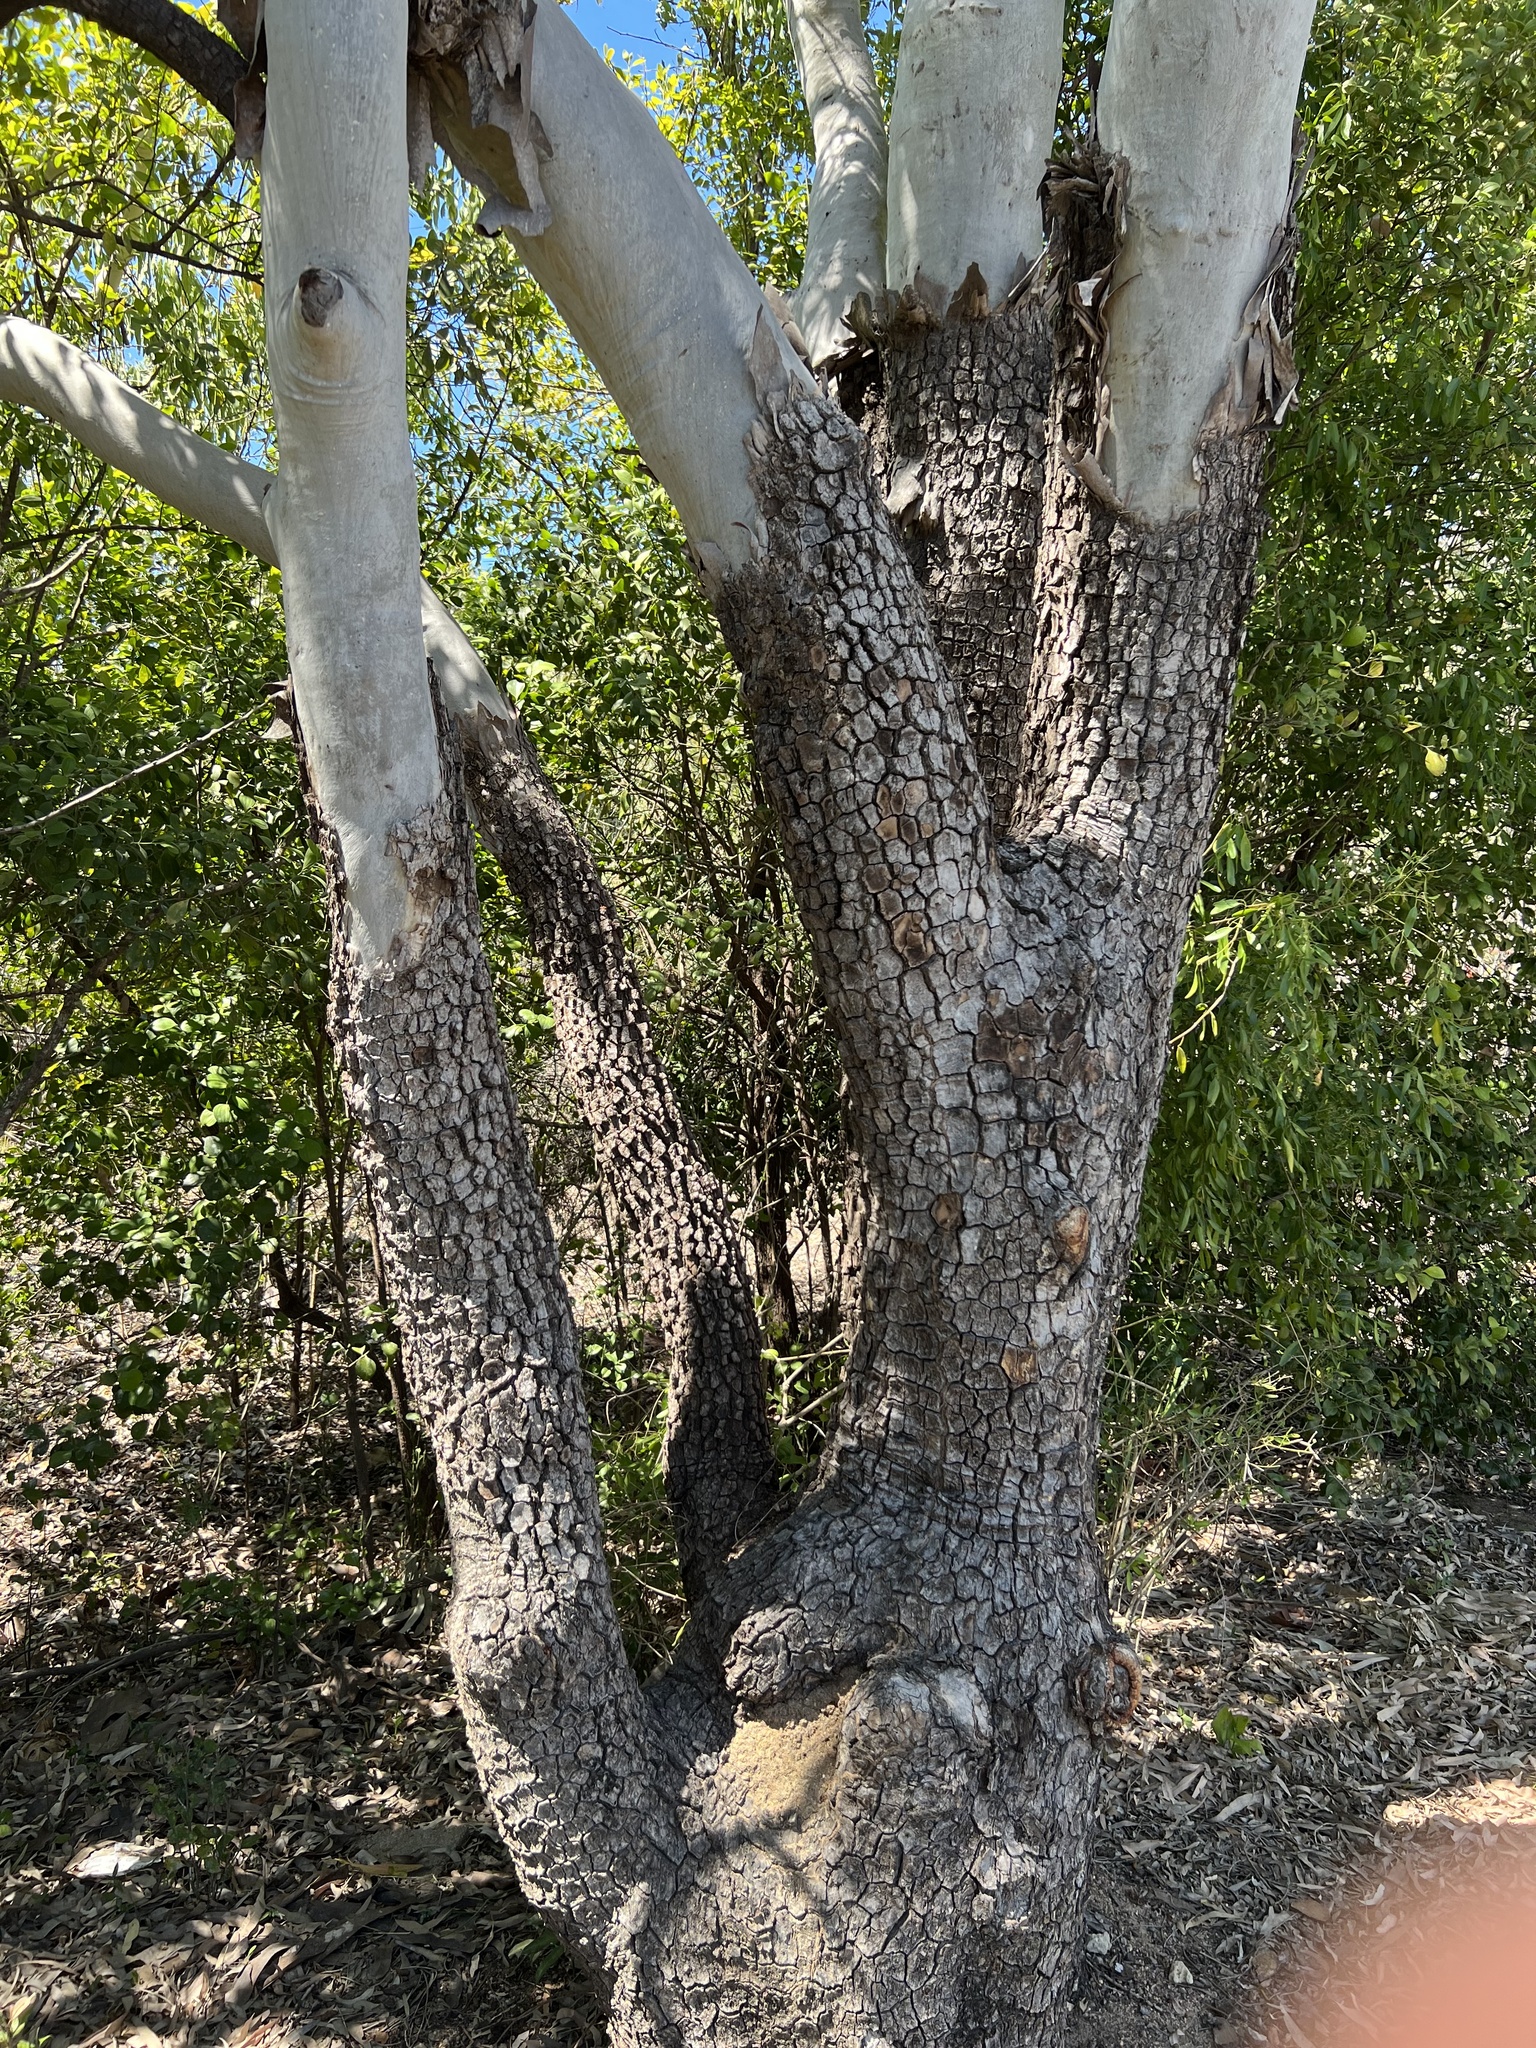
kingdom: Plantae
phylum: Tracheophyta
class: Magnoliopsida
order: Myrtales
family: Myrtaceae
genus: Corymbia
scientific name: Corymbia tessellaris
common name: Carbeen
